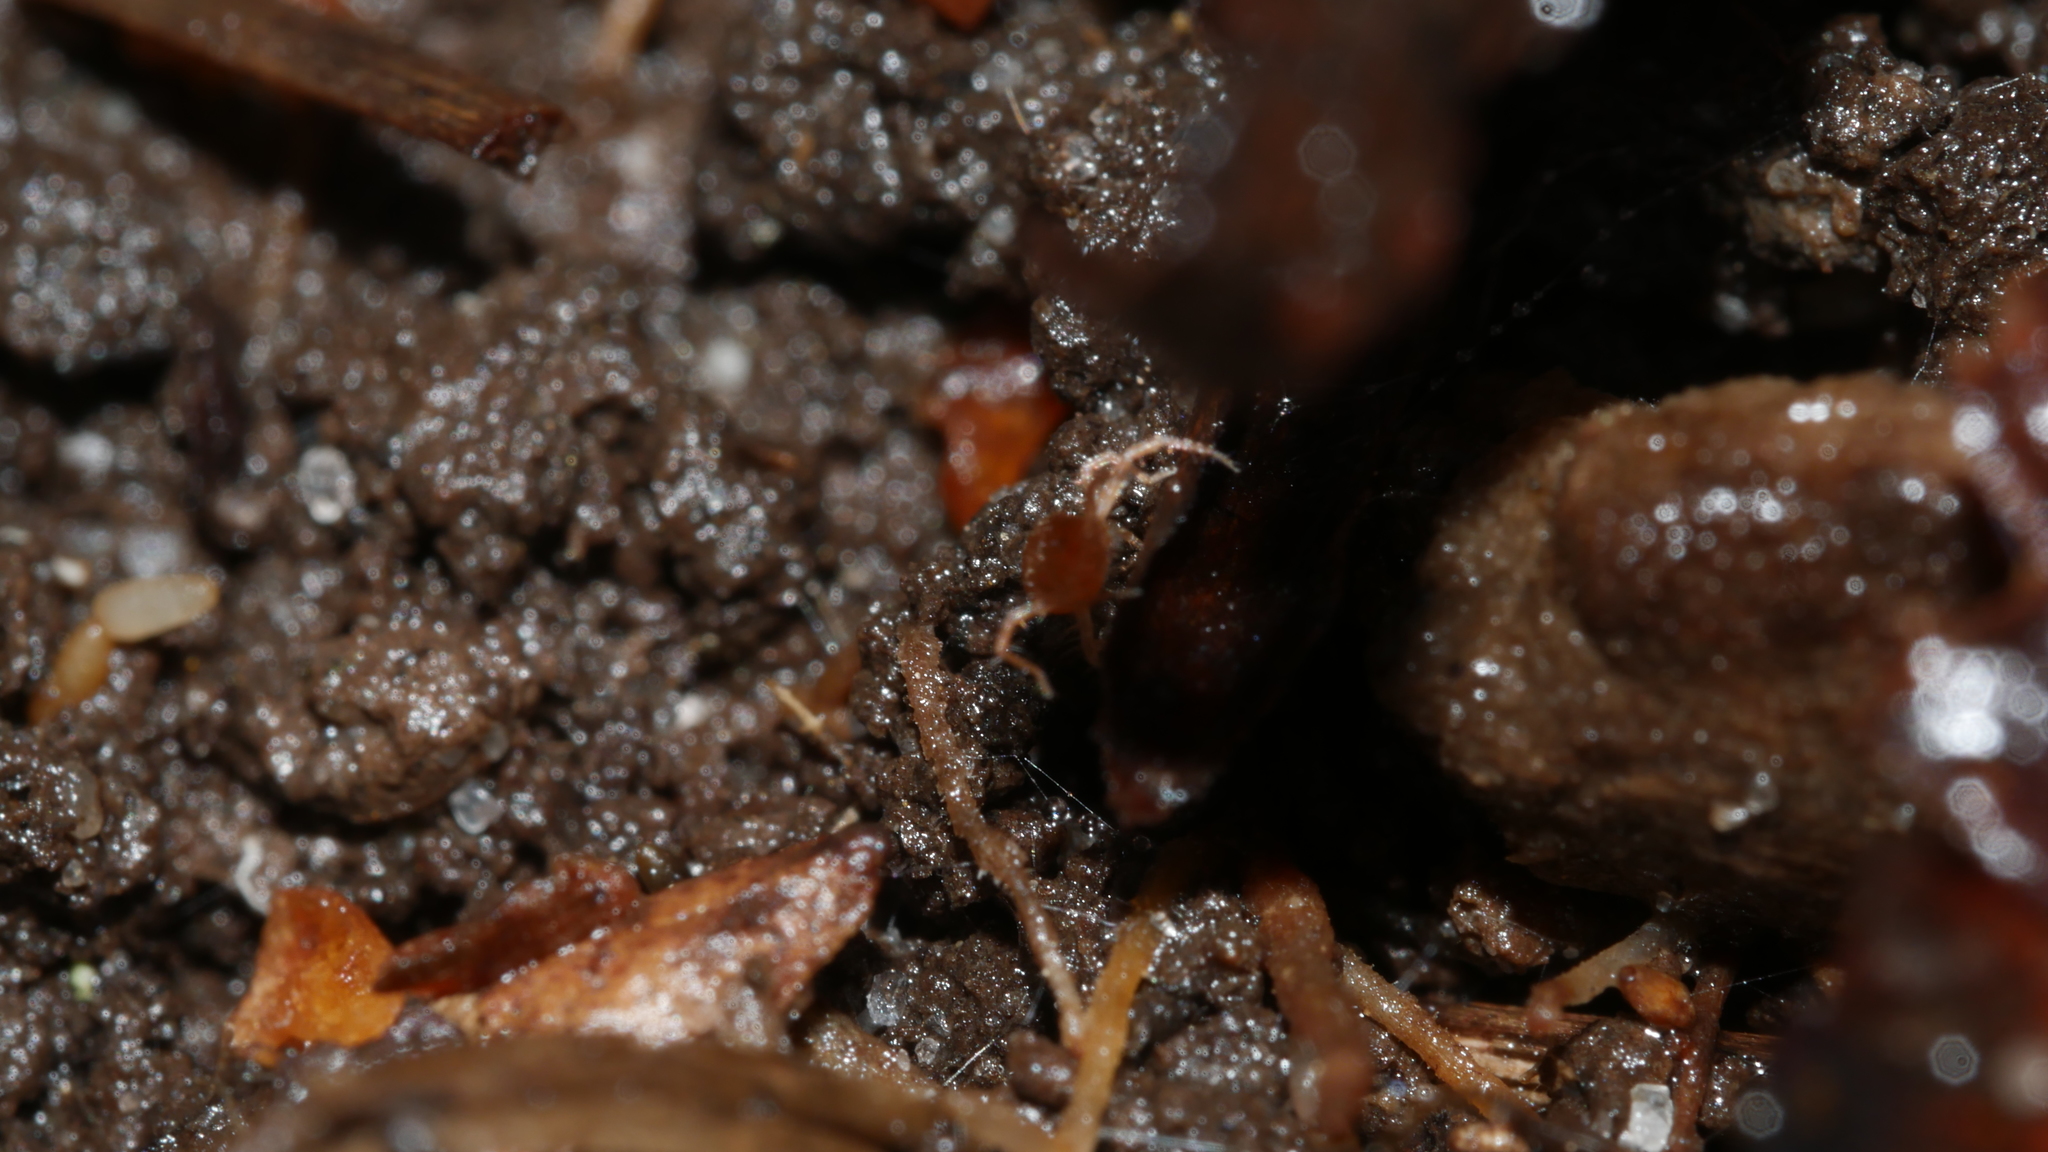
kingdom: Animalia
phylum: Arthropoda
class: Arachnida
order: Trombidiformes
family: Anystidae
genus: Anystis
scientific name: Anystis
